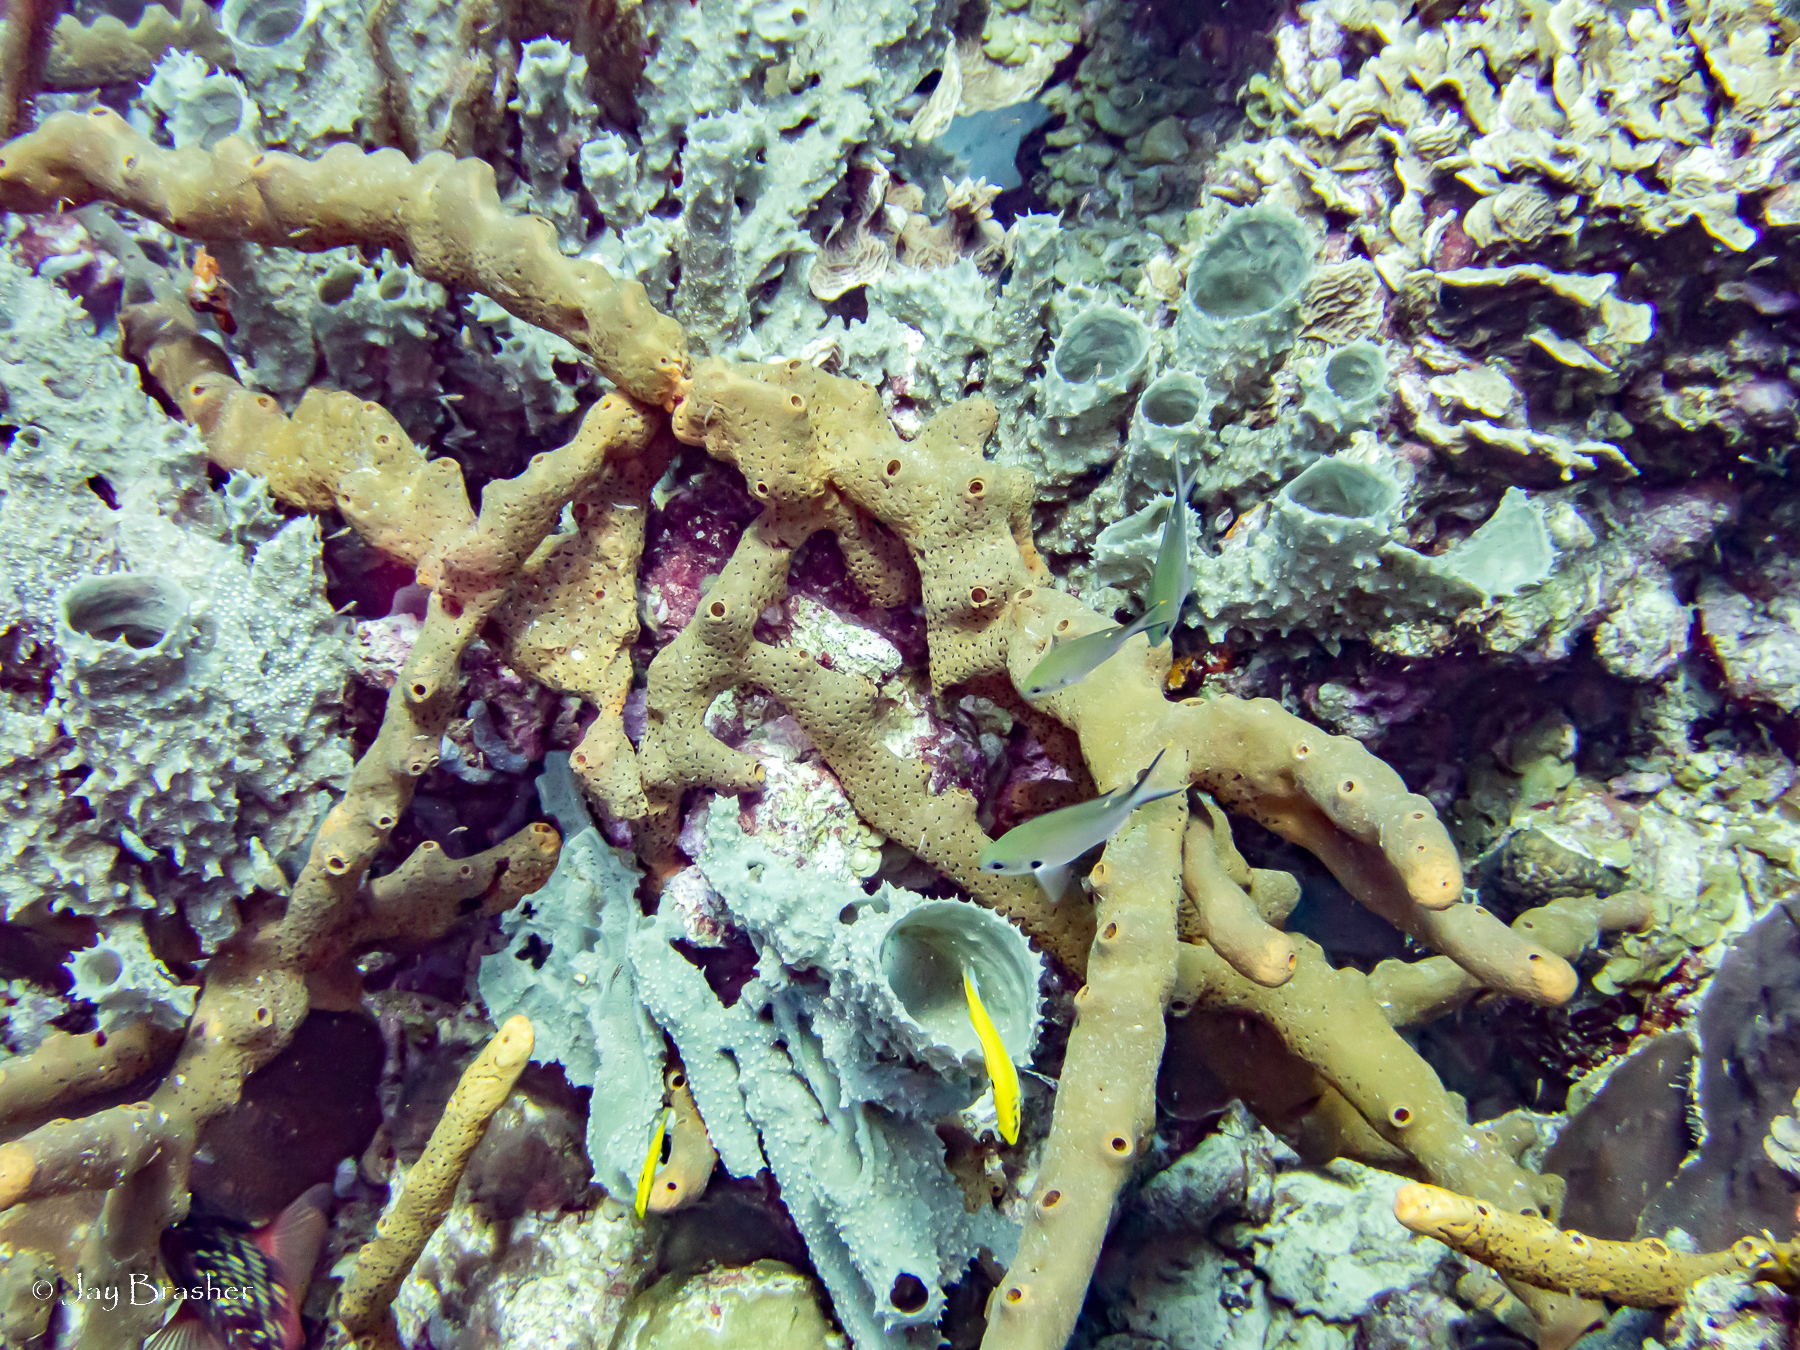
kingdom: Animalia
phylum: Porifera
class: Demospongiae
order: Agelasida
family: Agelasidae
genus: Agelas
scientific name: Agelas conifera
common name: Brown tube sponge
